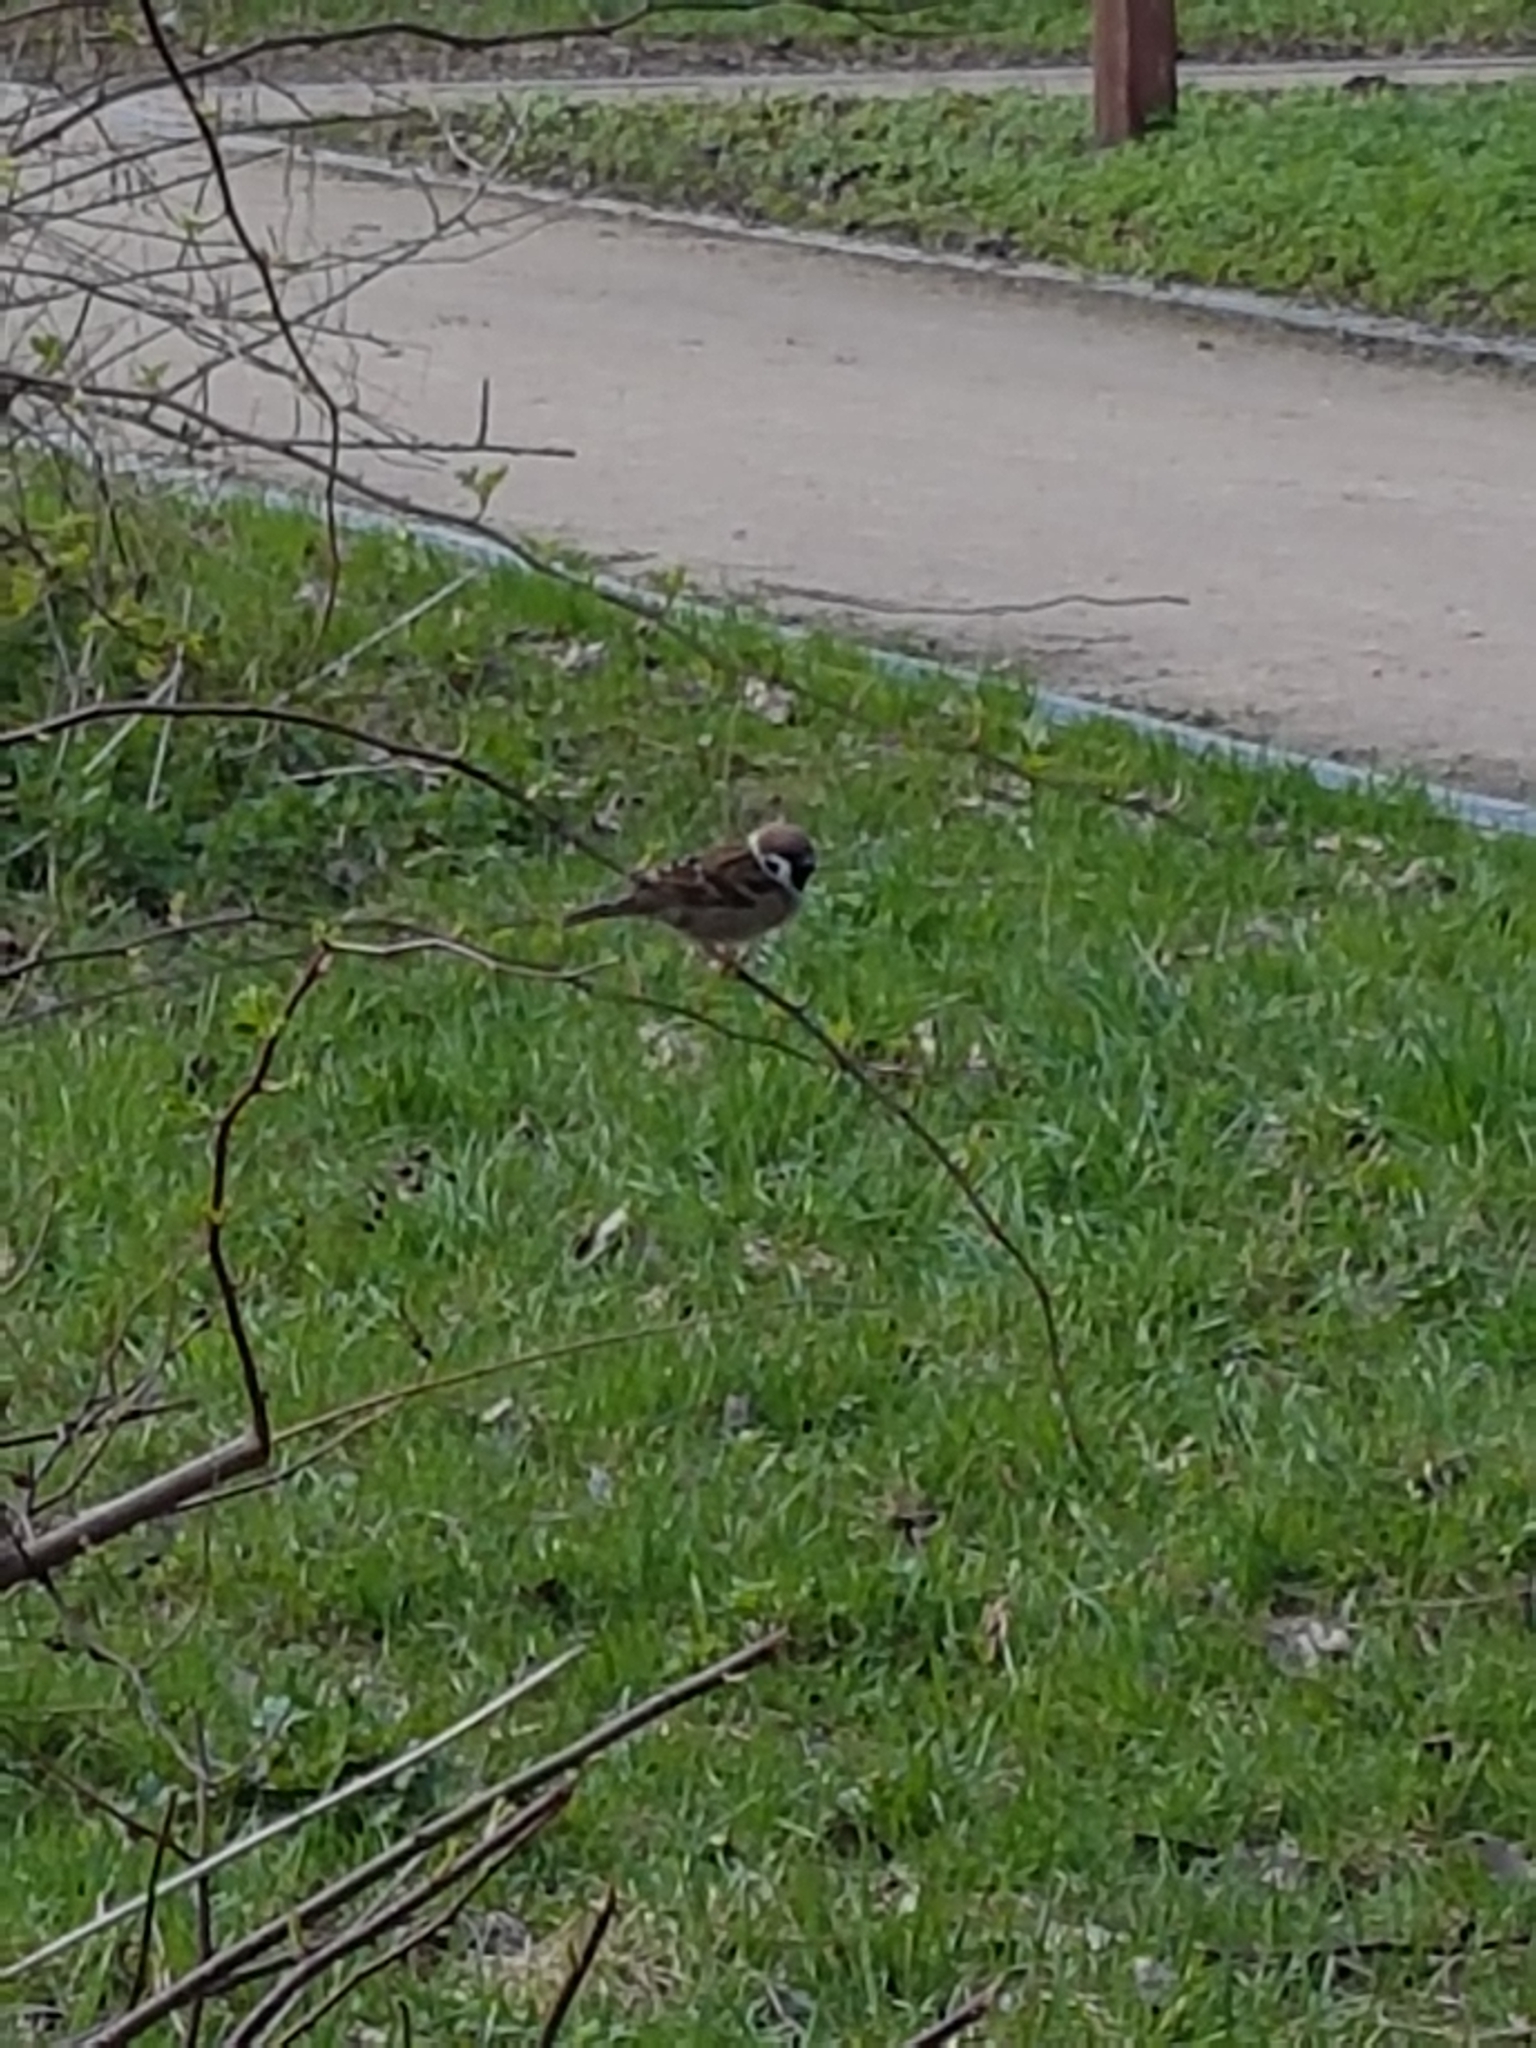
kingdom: Animalia
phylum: Chordata
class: Aves
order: Passeriformes
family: Passeridae
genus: Passer
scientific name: Passer montanus
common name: Eurasian tree sparrow
